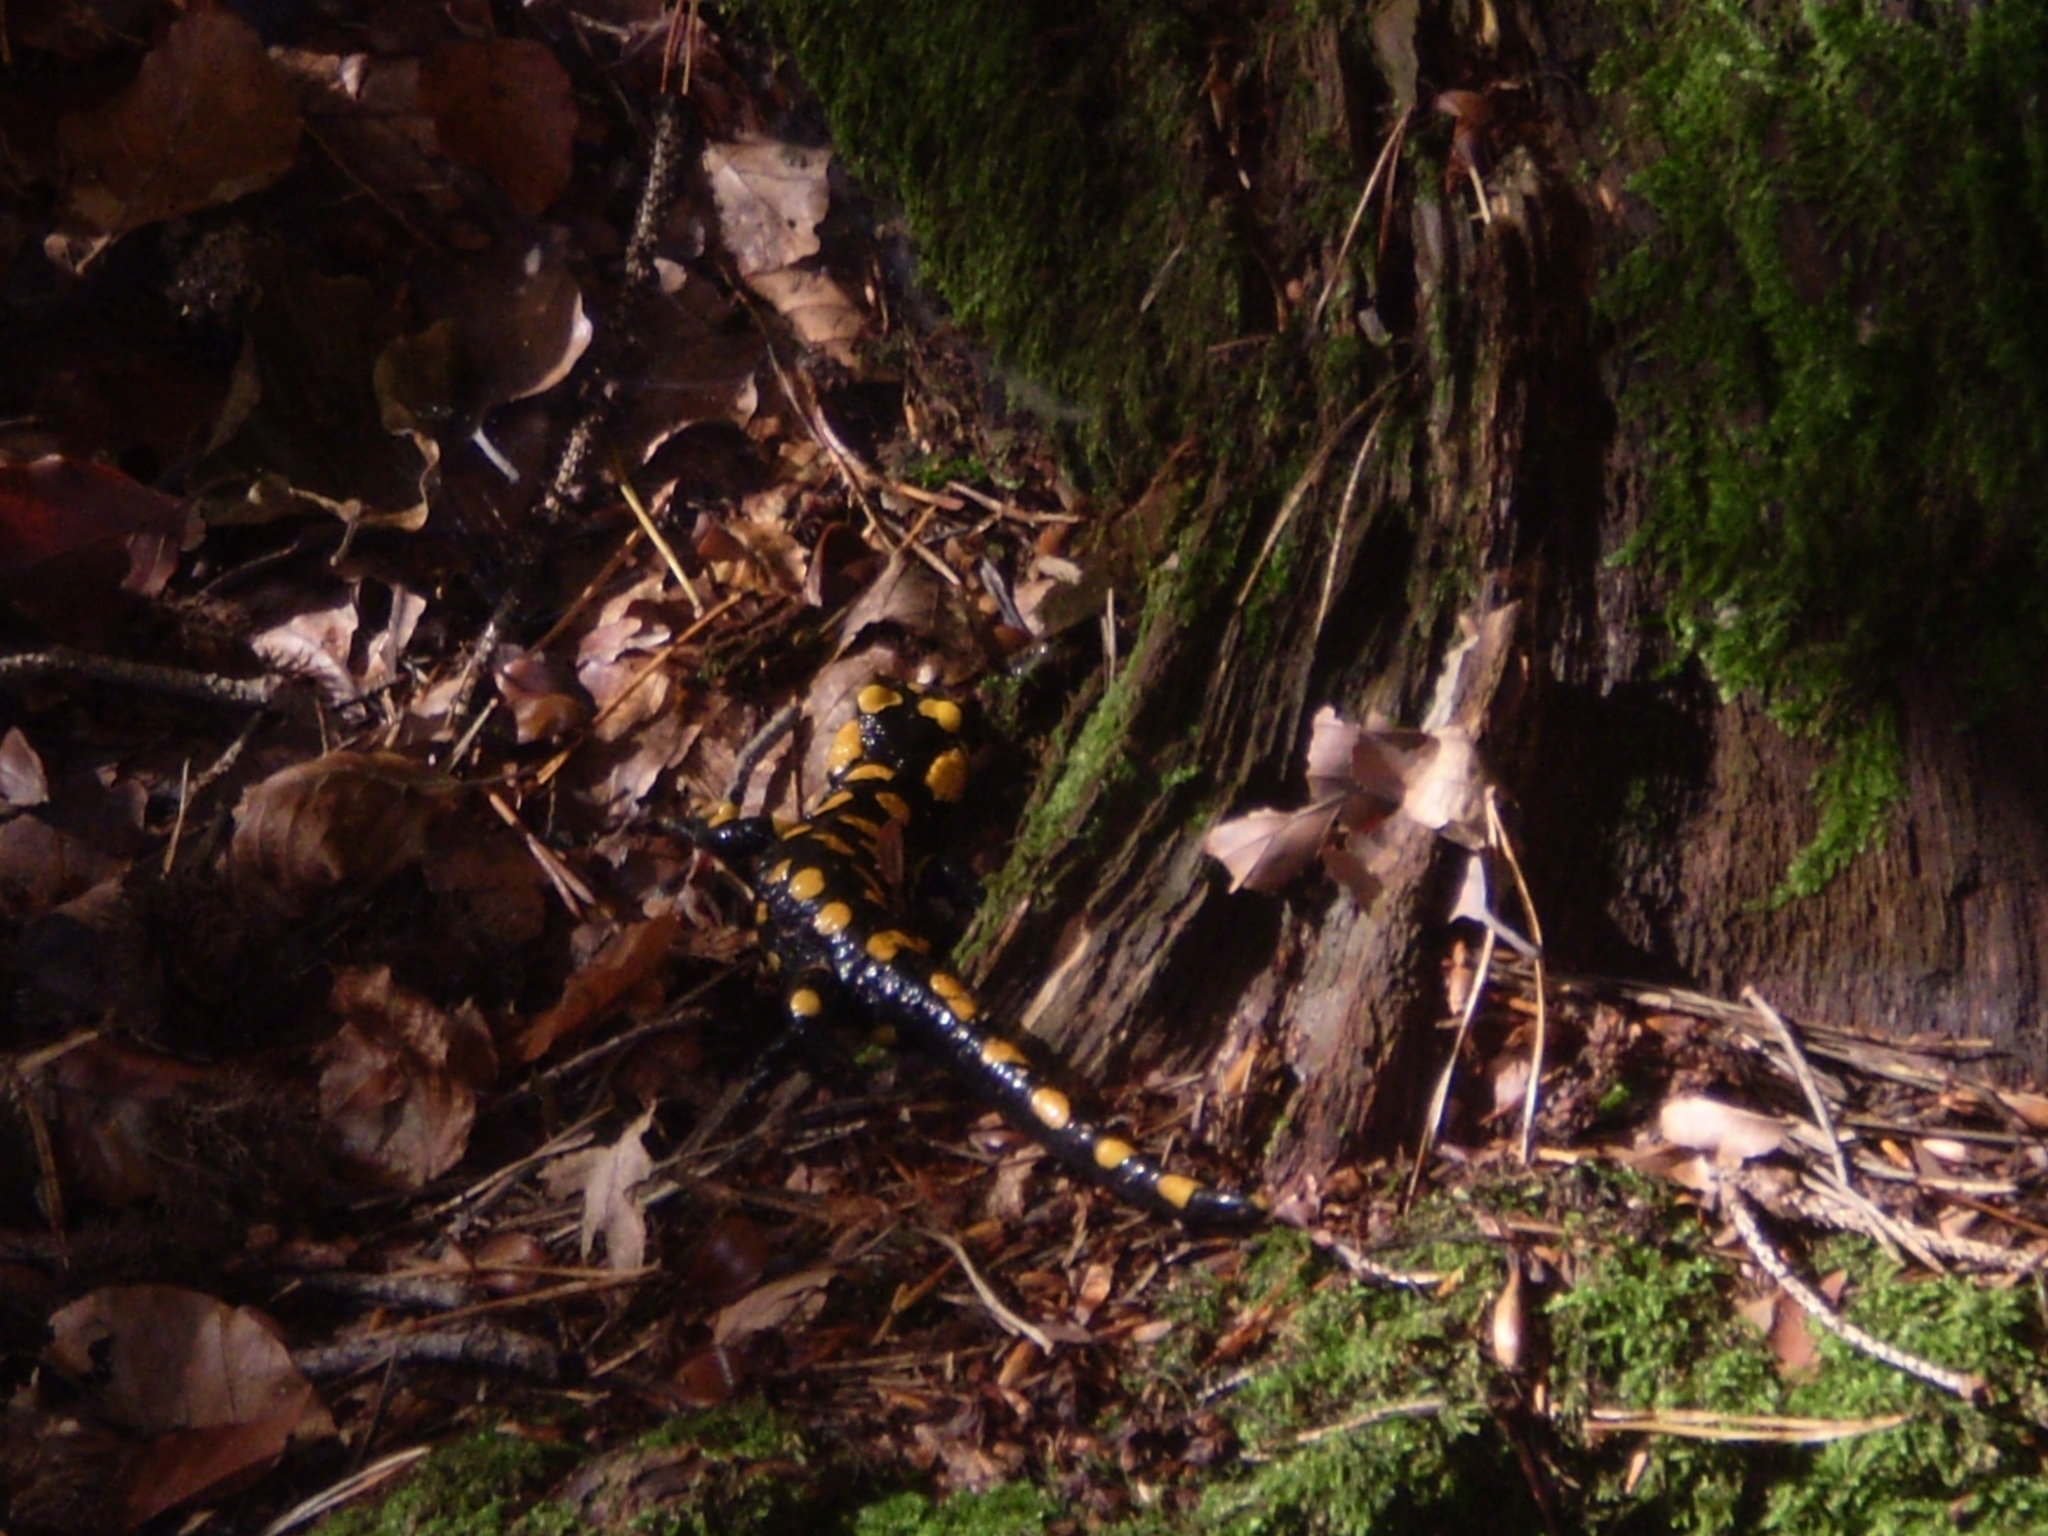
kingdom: Animalia
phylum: Chordata
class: Amphibia
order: Caudata
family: Salamandridae
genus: Salamandra
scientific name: Salamandra salamandra
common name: Fire salamander
